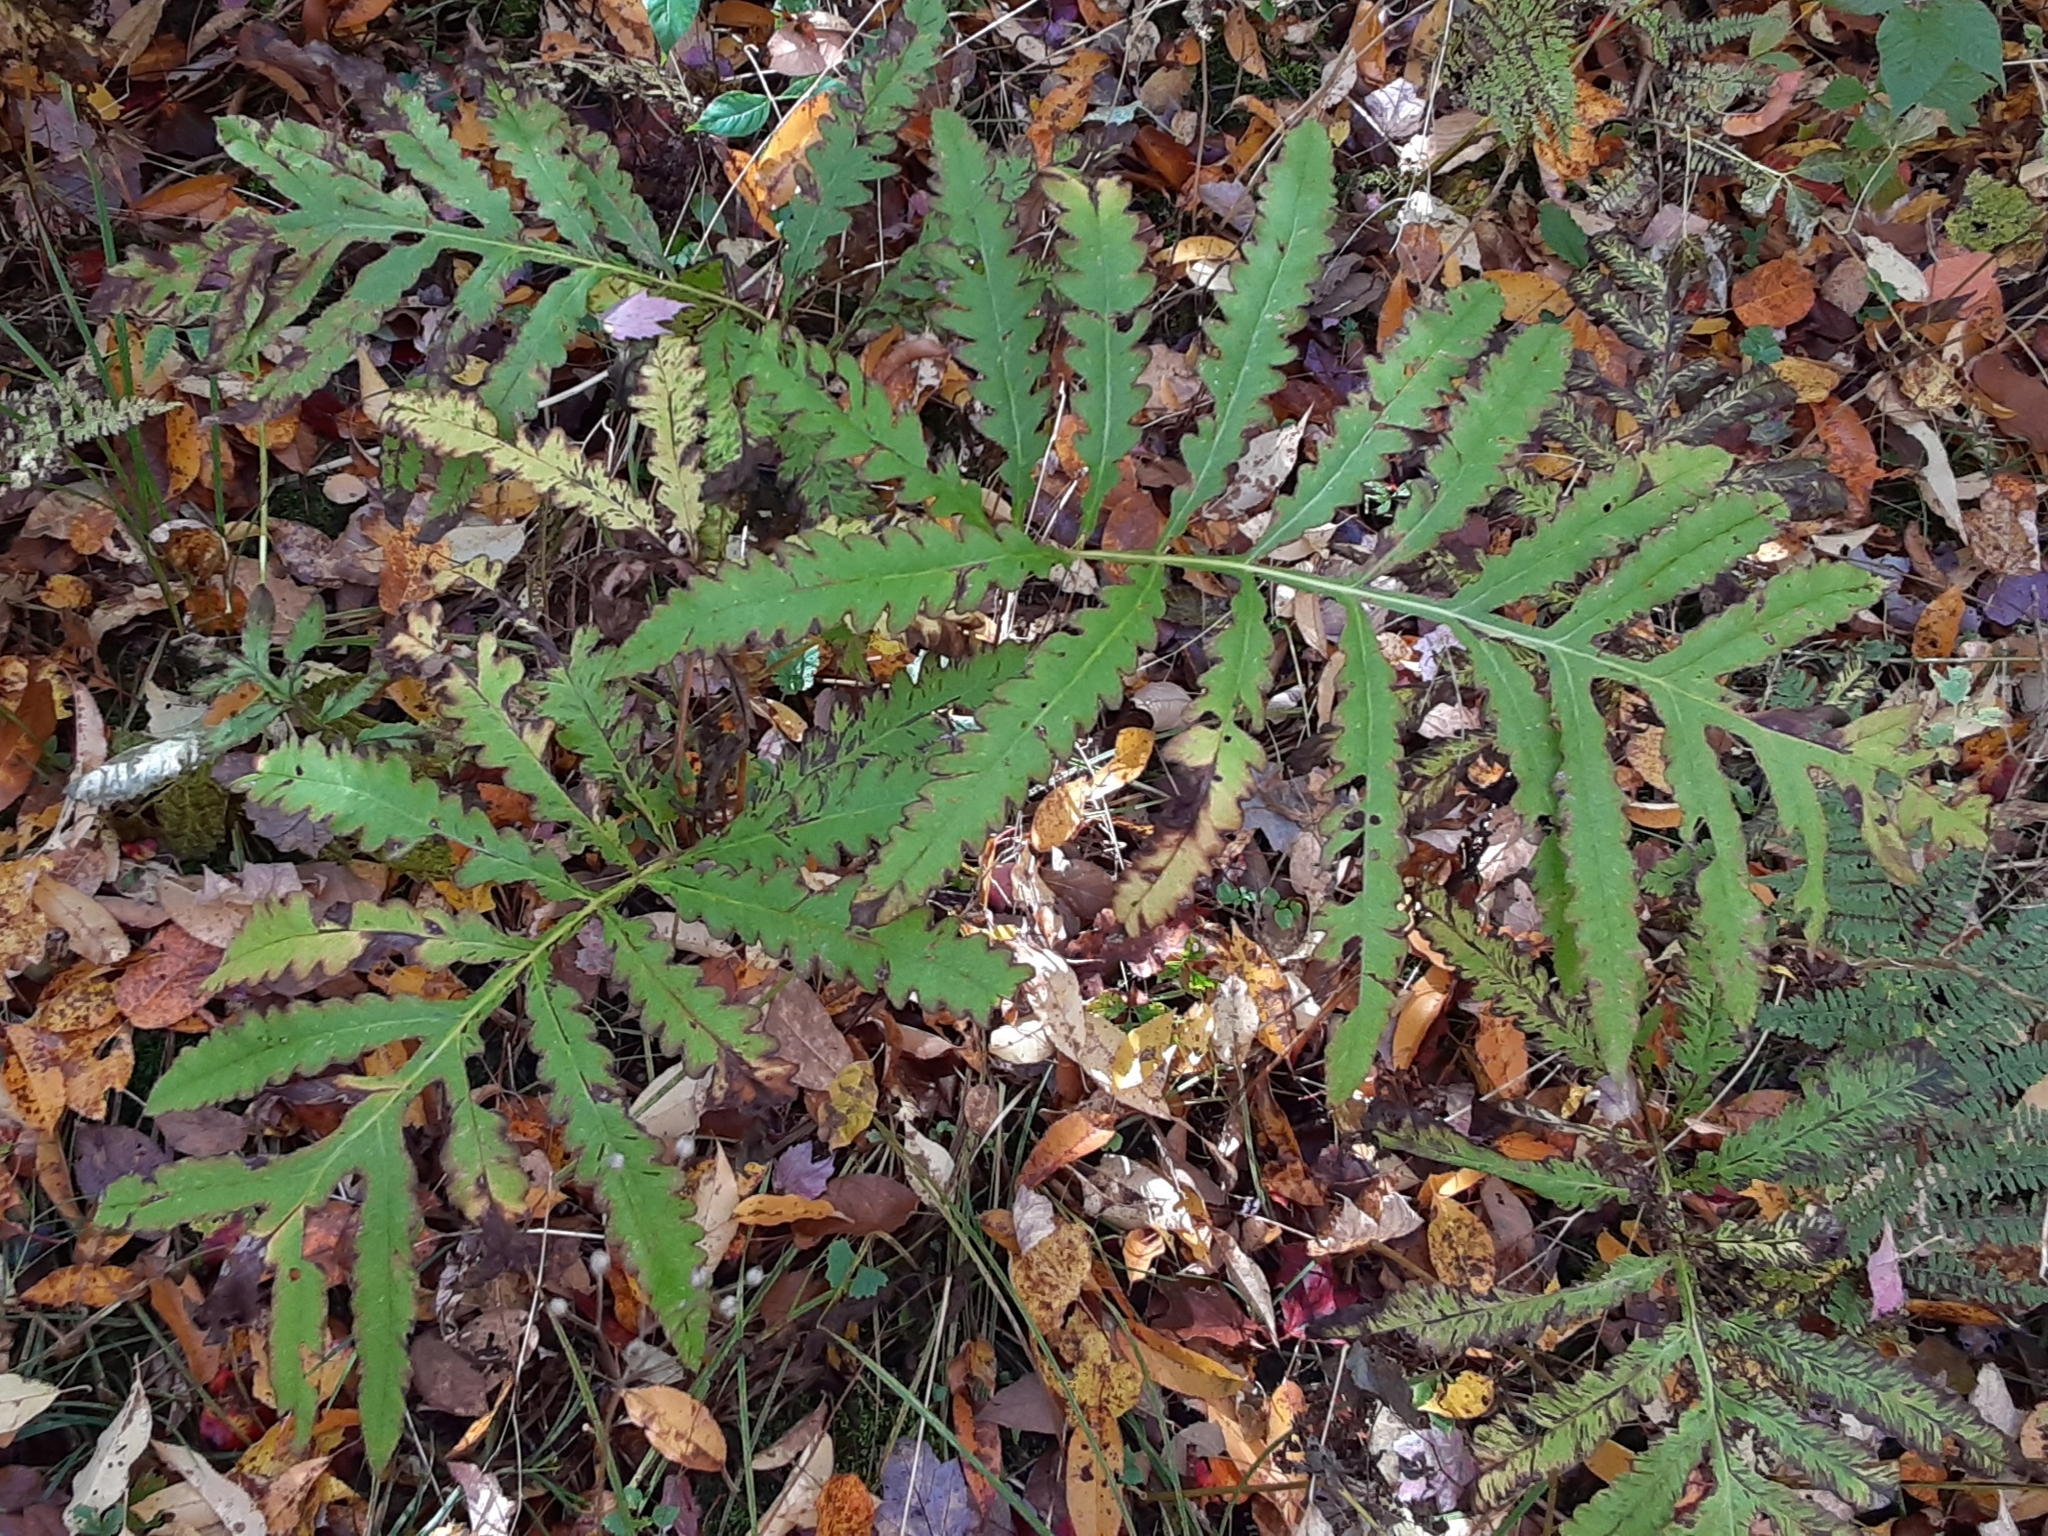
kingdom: Plantae
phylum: Tracheophyta
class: Polypodiopsida
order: Polypodiales
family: Onocleaceae
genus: Onoclea
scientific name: Onoclea sensibilis
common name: Sensitive fern
